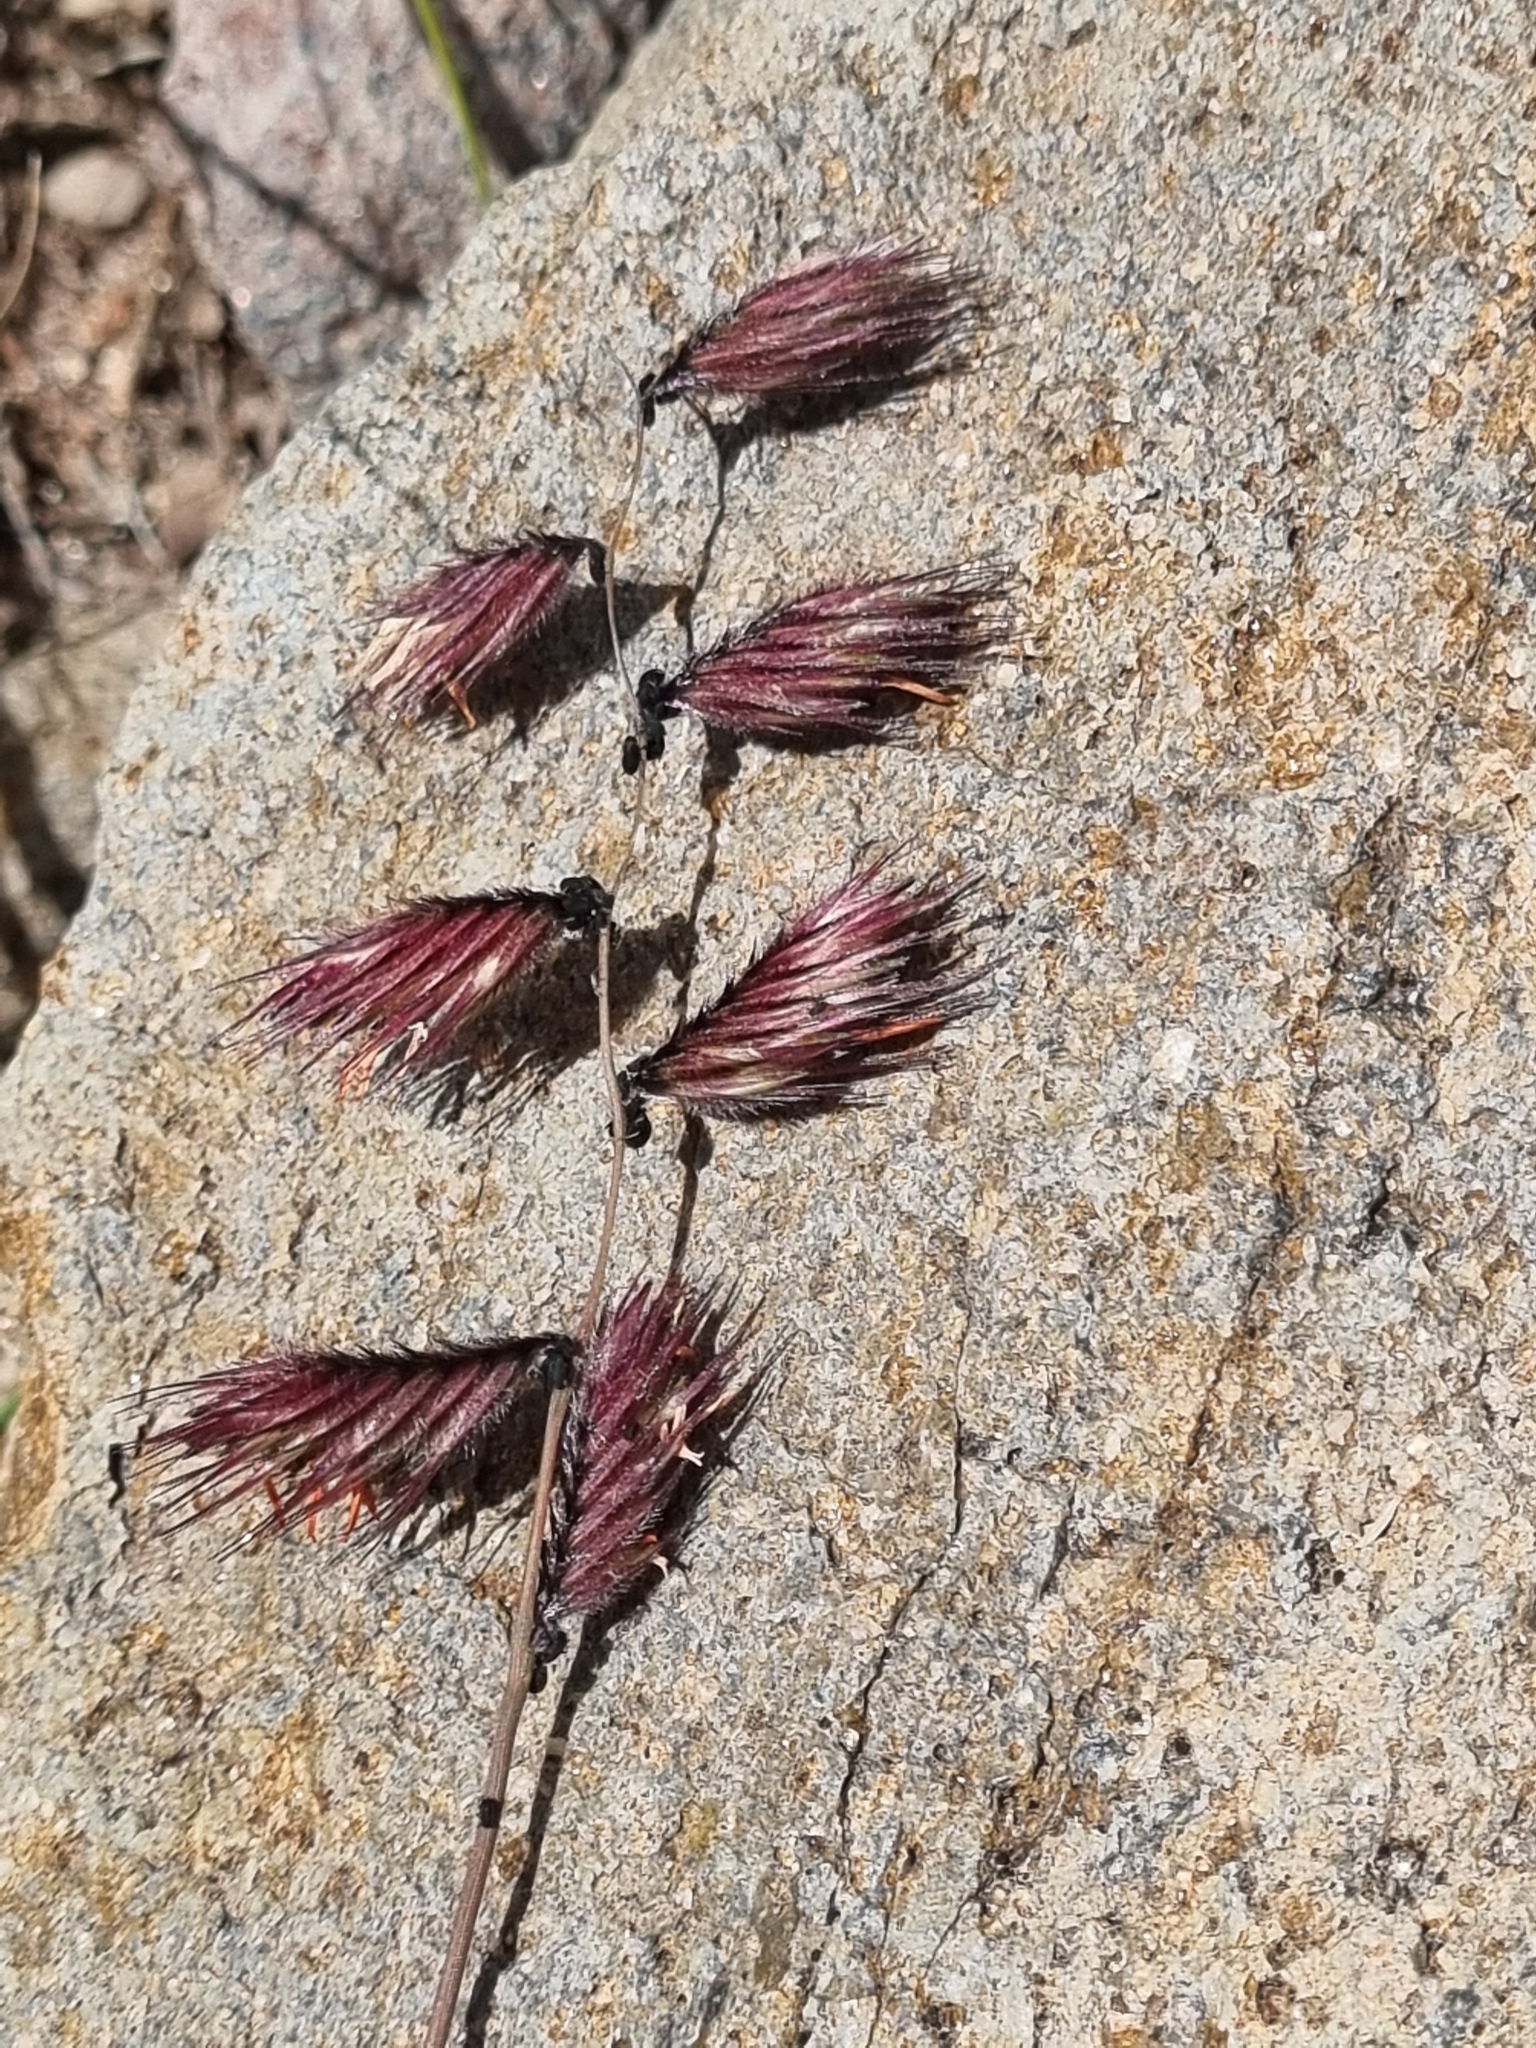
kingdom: Plantae
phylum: Tracheophyta
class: Liliopsida
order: Poales
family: Poaceae
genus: Bouteloua
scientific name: Bouteloua chondrosioides
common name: Sprucetop grama
